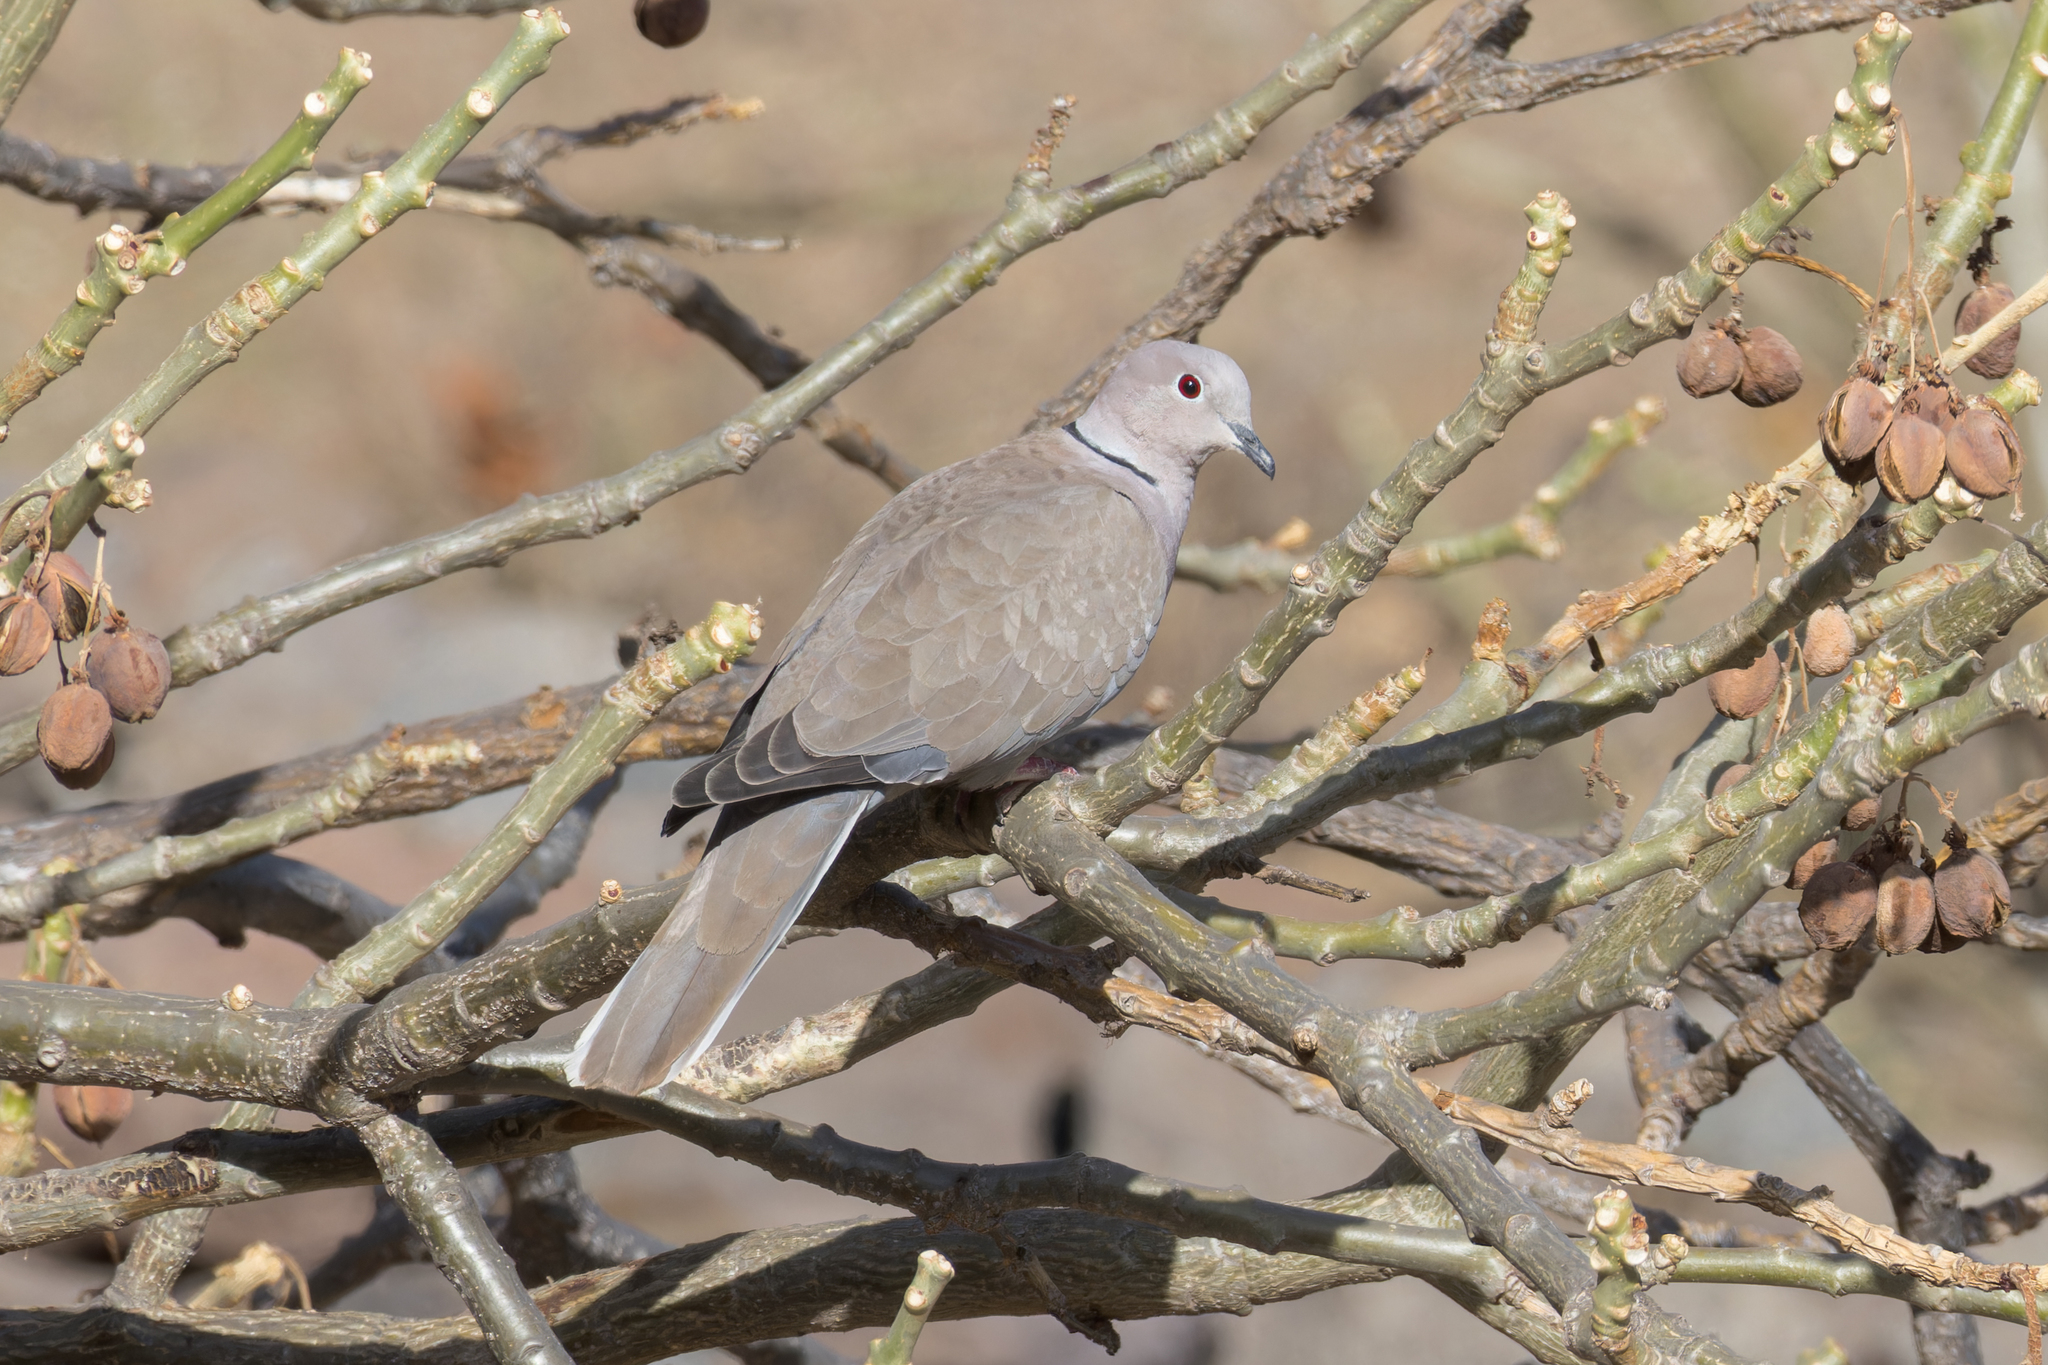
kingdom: Animalia
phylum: Chordata
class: Aves
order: Columbiformes
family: Columbidae
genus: Streptopelia
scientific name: Streptopelia decaocto
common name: Eurasian collared dove
